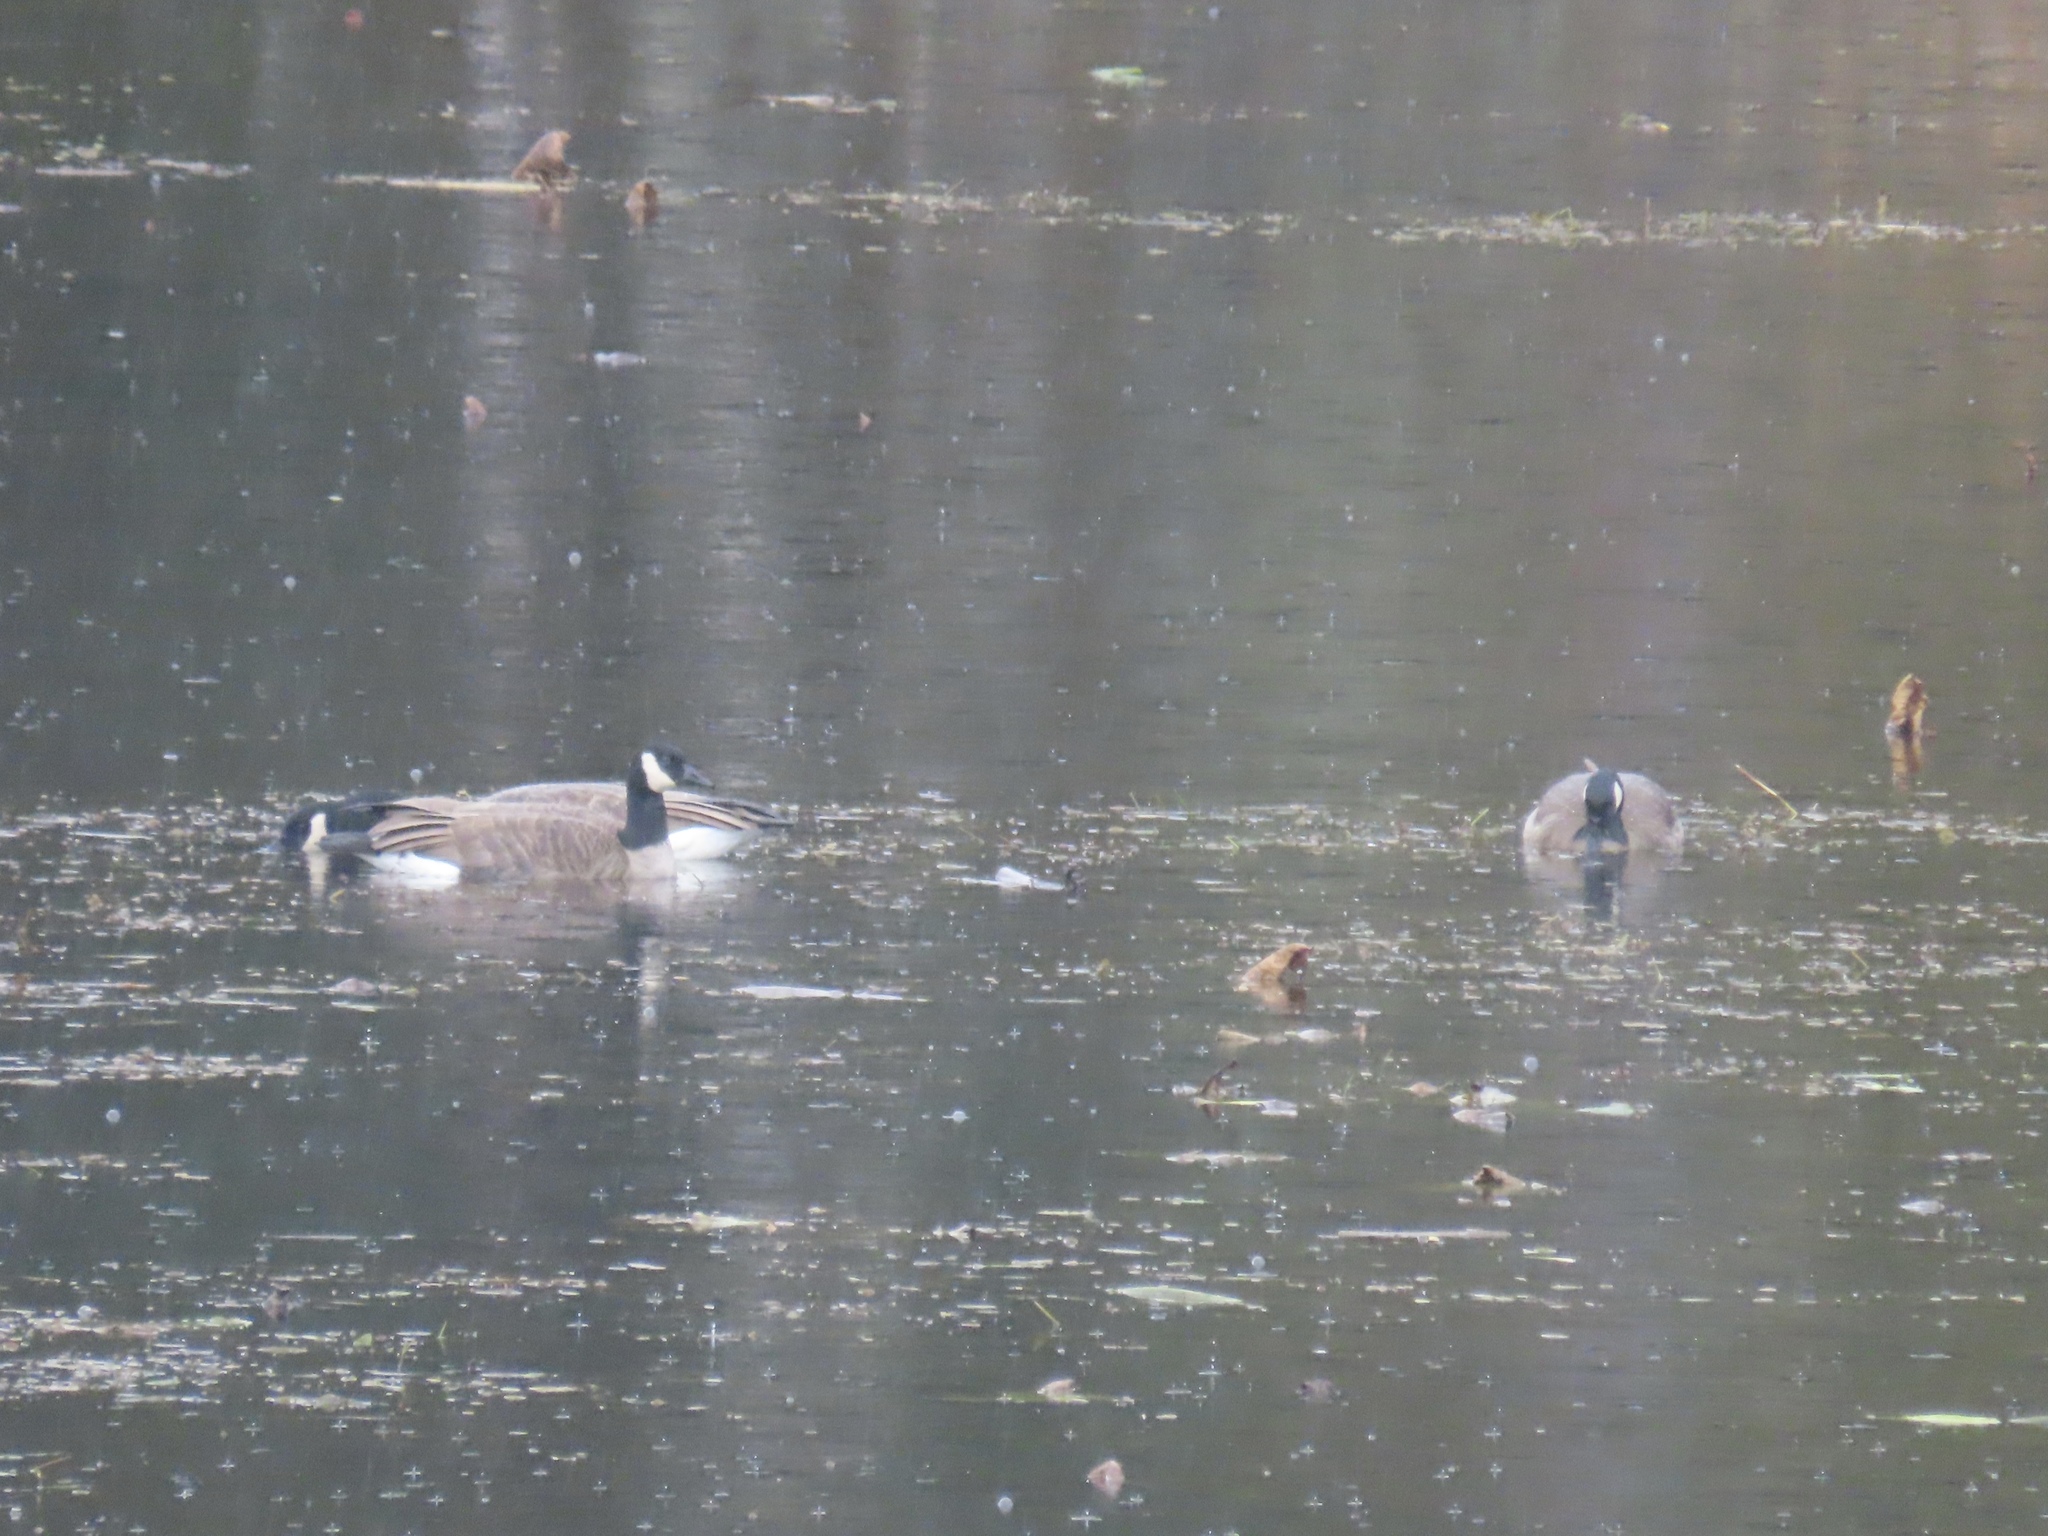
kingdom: Animalia
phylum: Chordata
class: Aves
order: Anseriformes
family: Anatidae
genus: Branta
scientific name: Branta canadensis
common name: Canada goose
